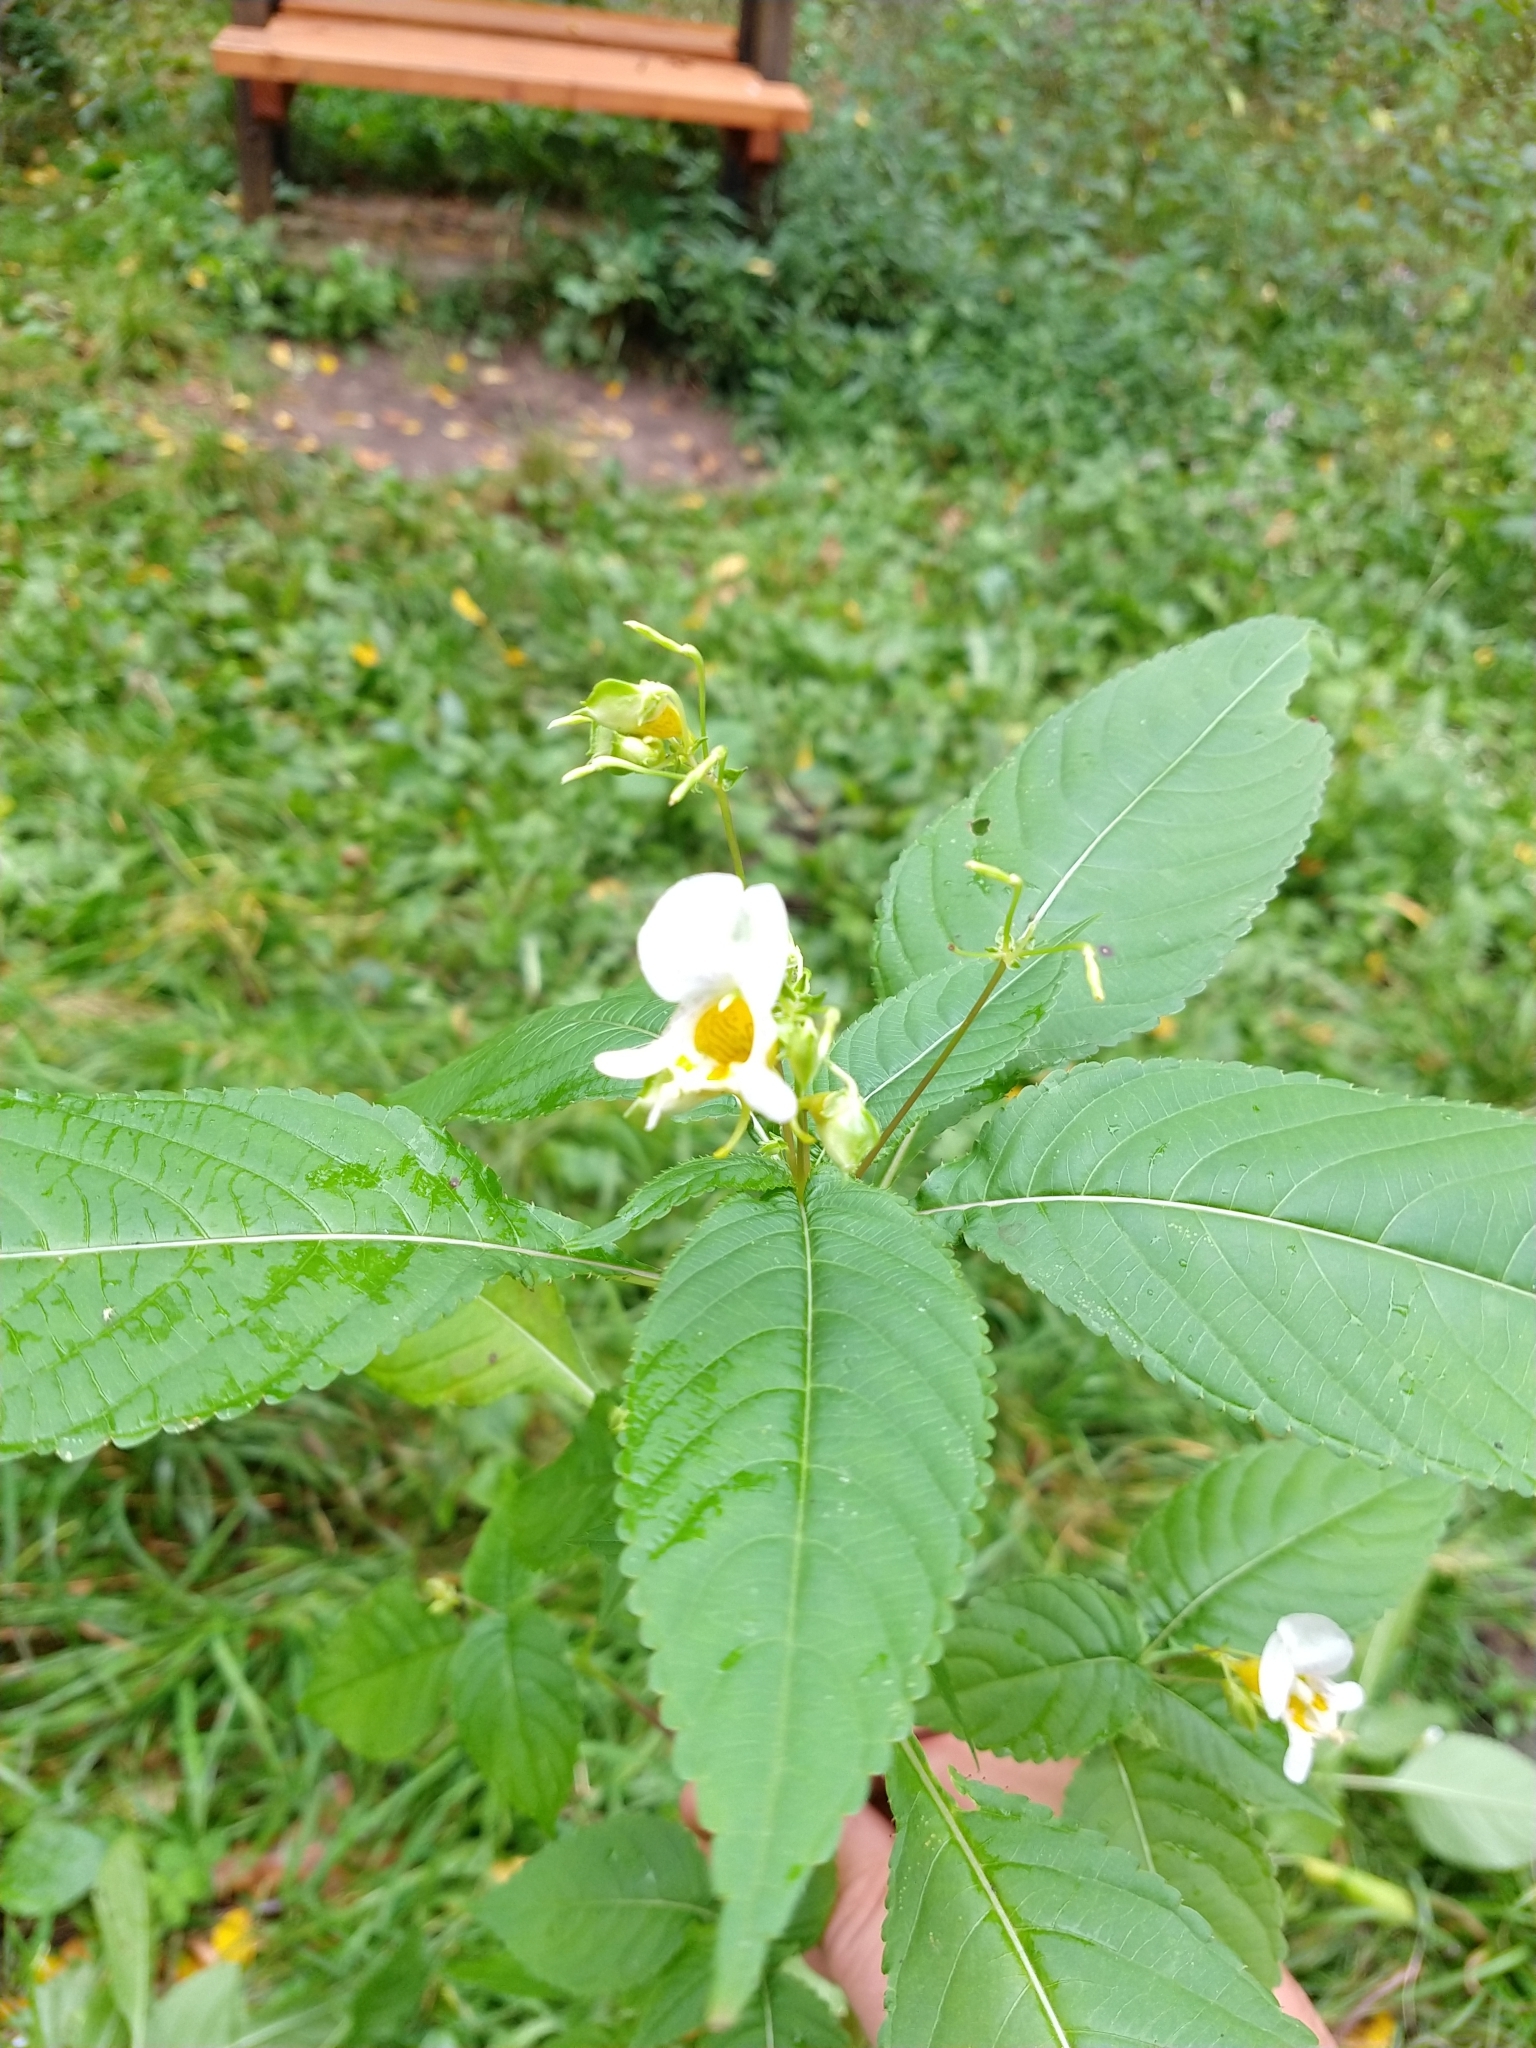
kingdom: Plantae
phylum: Tracheophyta
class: Magnoliopsida
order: Ericales
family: Balsaminaceae
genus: Impatiens
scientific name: Impatiens edgeworthii
